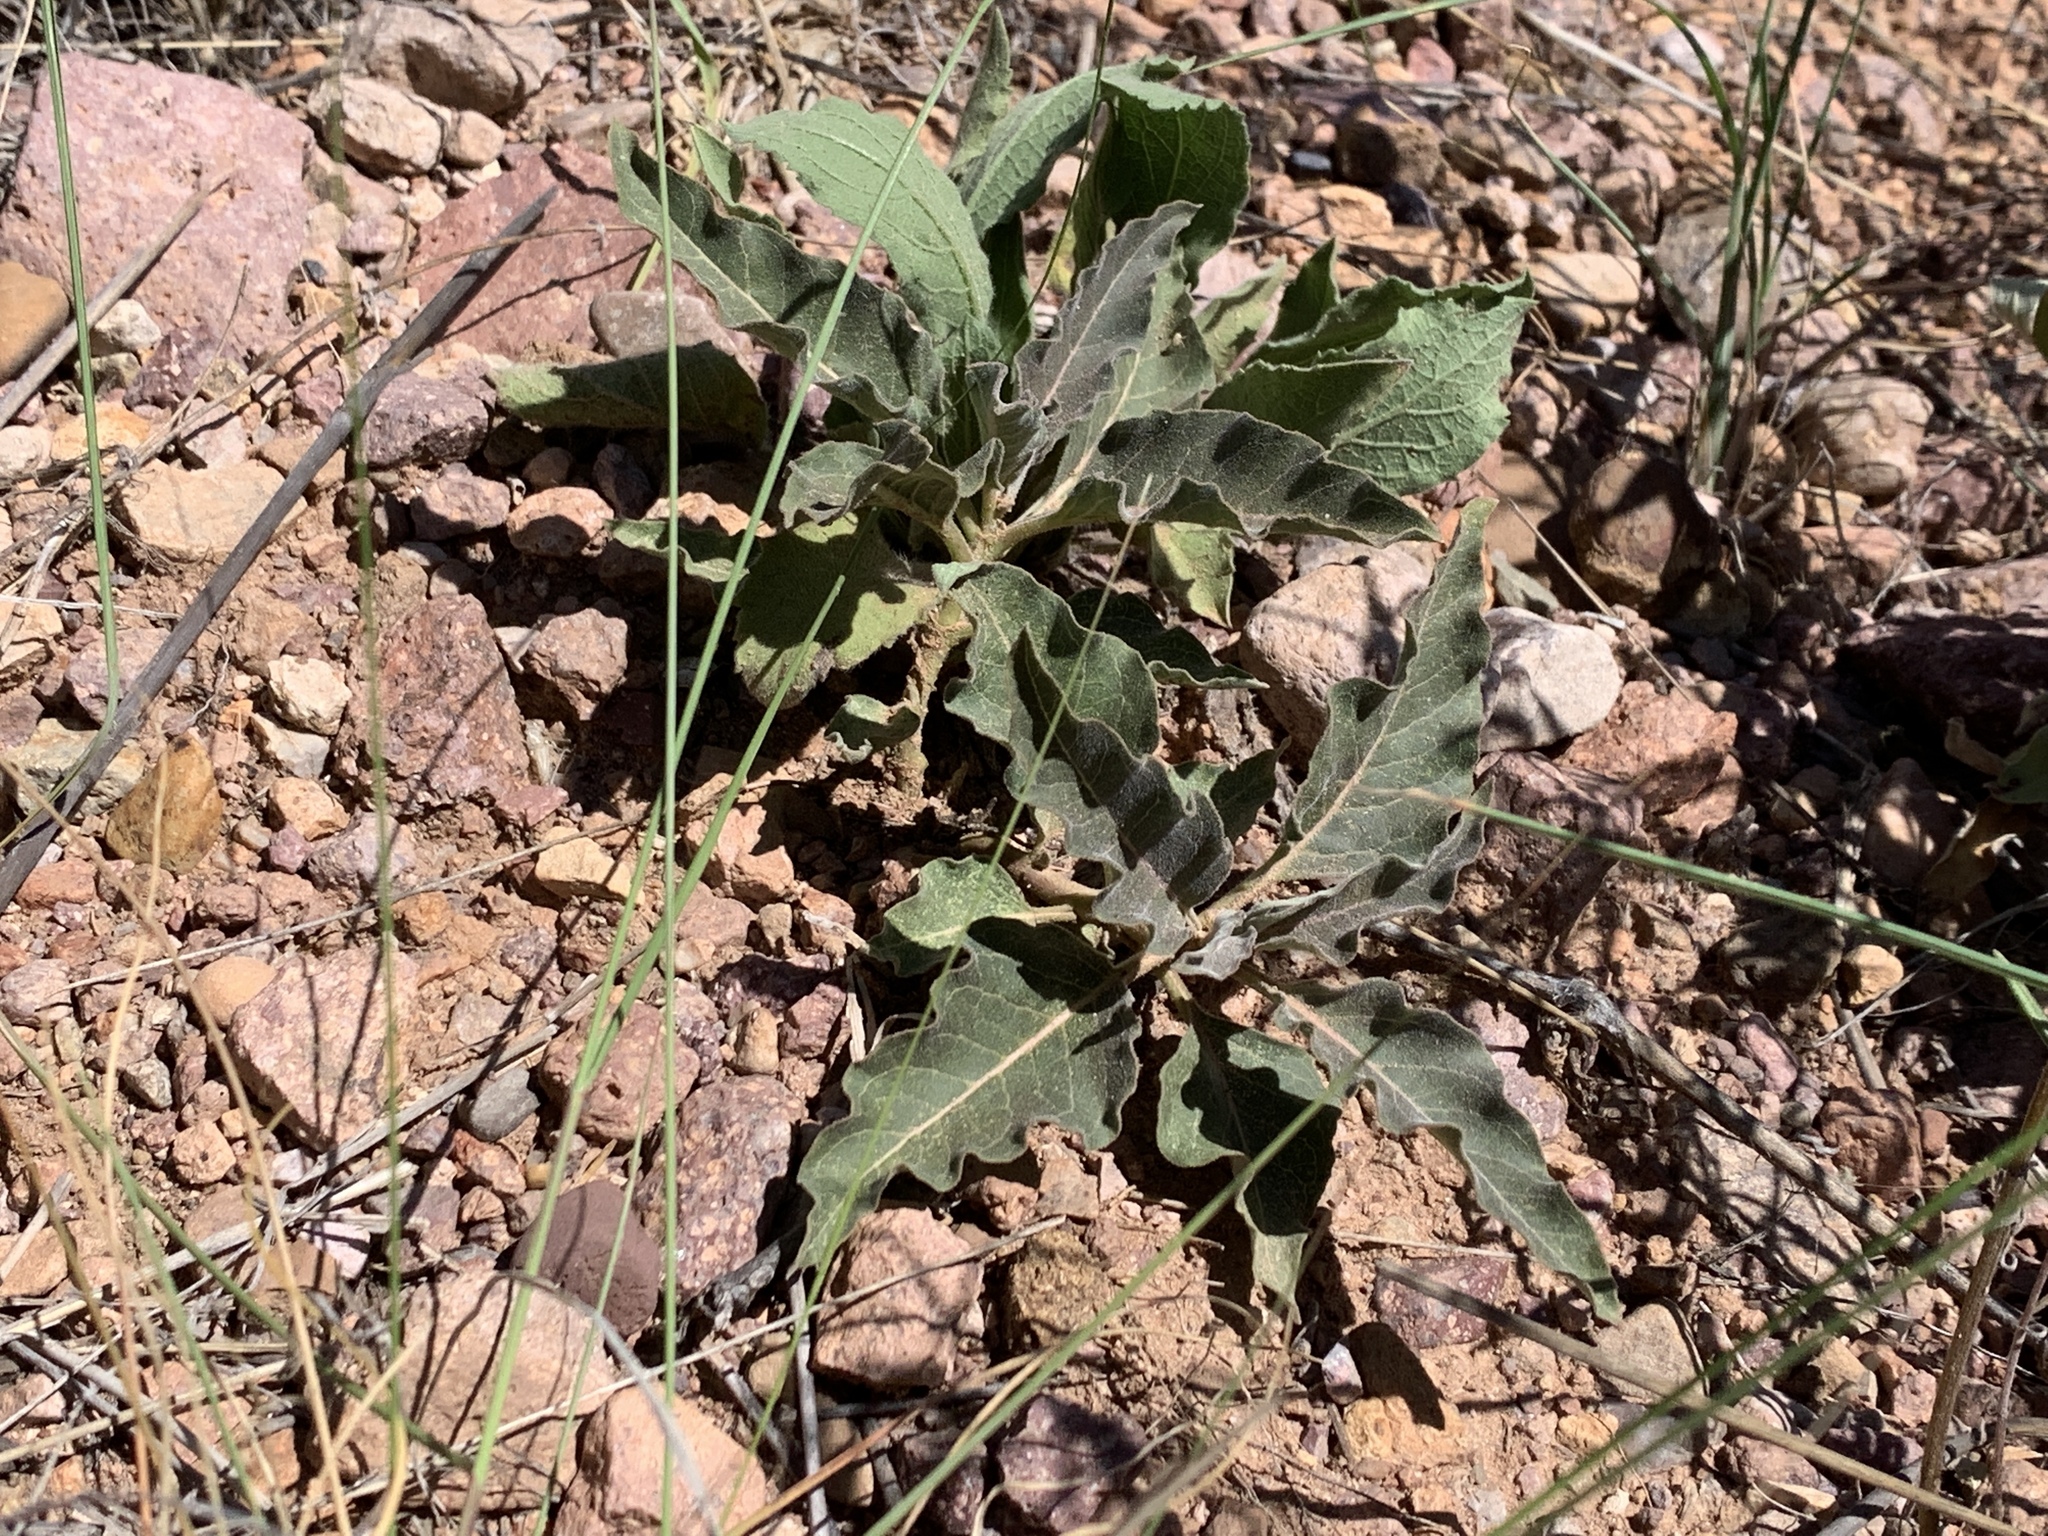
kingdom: Plantae
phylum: Tracheophyta
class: Magnoliopsida
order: Gentianales
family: Apocynaceae
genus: Asclepias
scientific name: Asclepias nyctaginifolia
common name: Mojave milkweed
